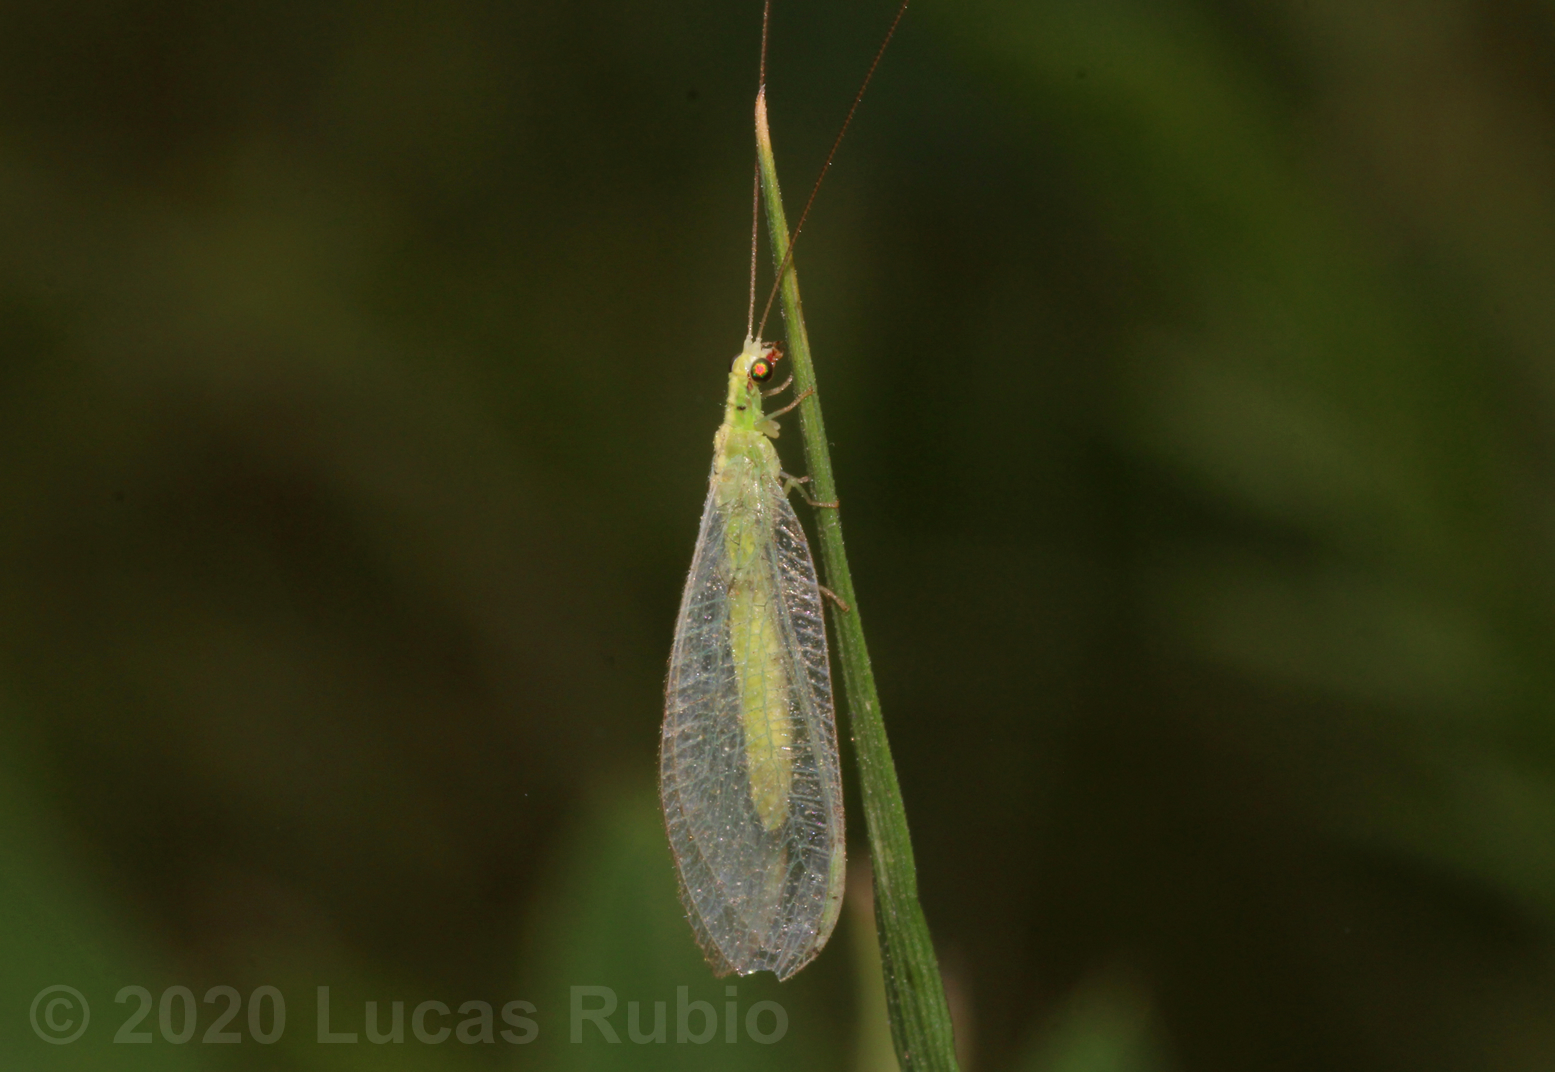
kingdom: Animalia
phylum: Arthropoda
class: Insecta
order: Neuroptera
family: Chrysopidae
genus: Chrysoperla
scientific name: Chrysoperla externa
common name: Green lacewing
